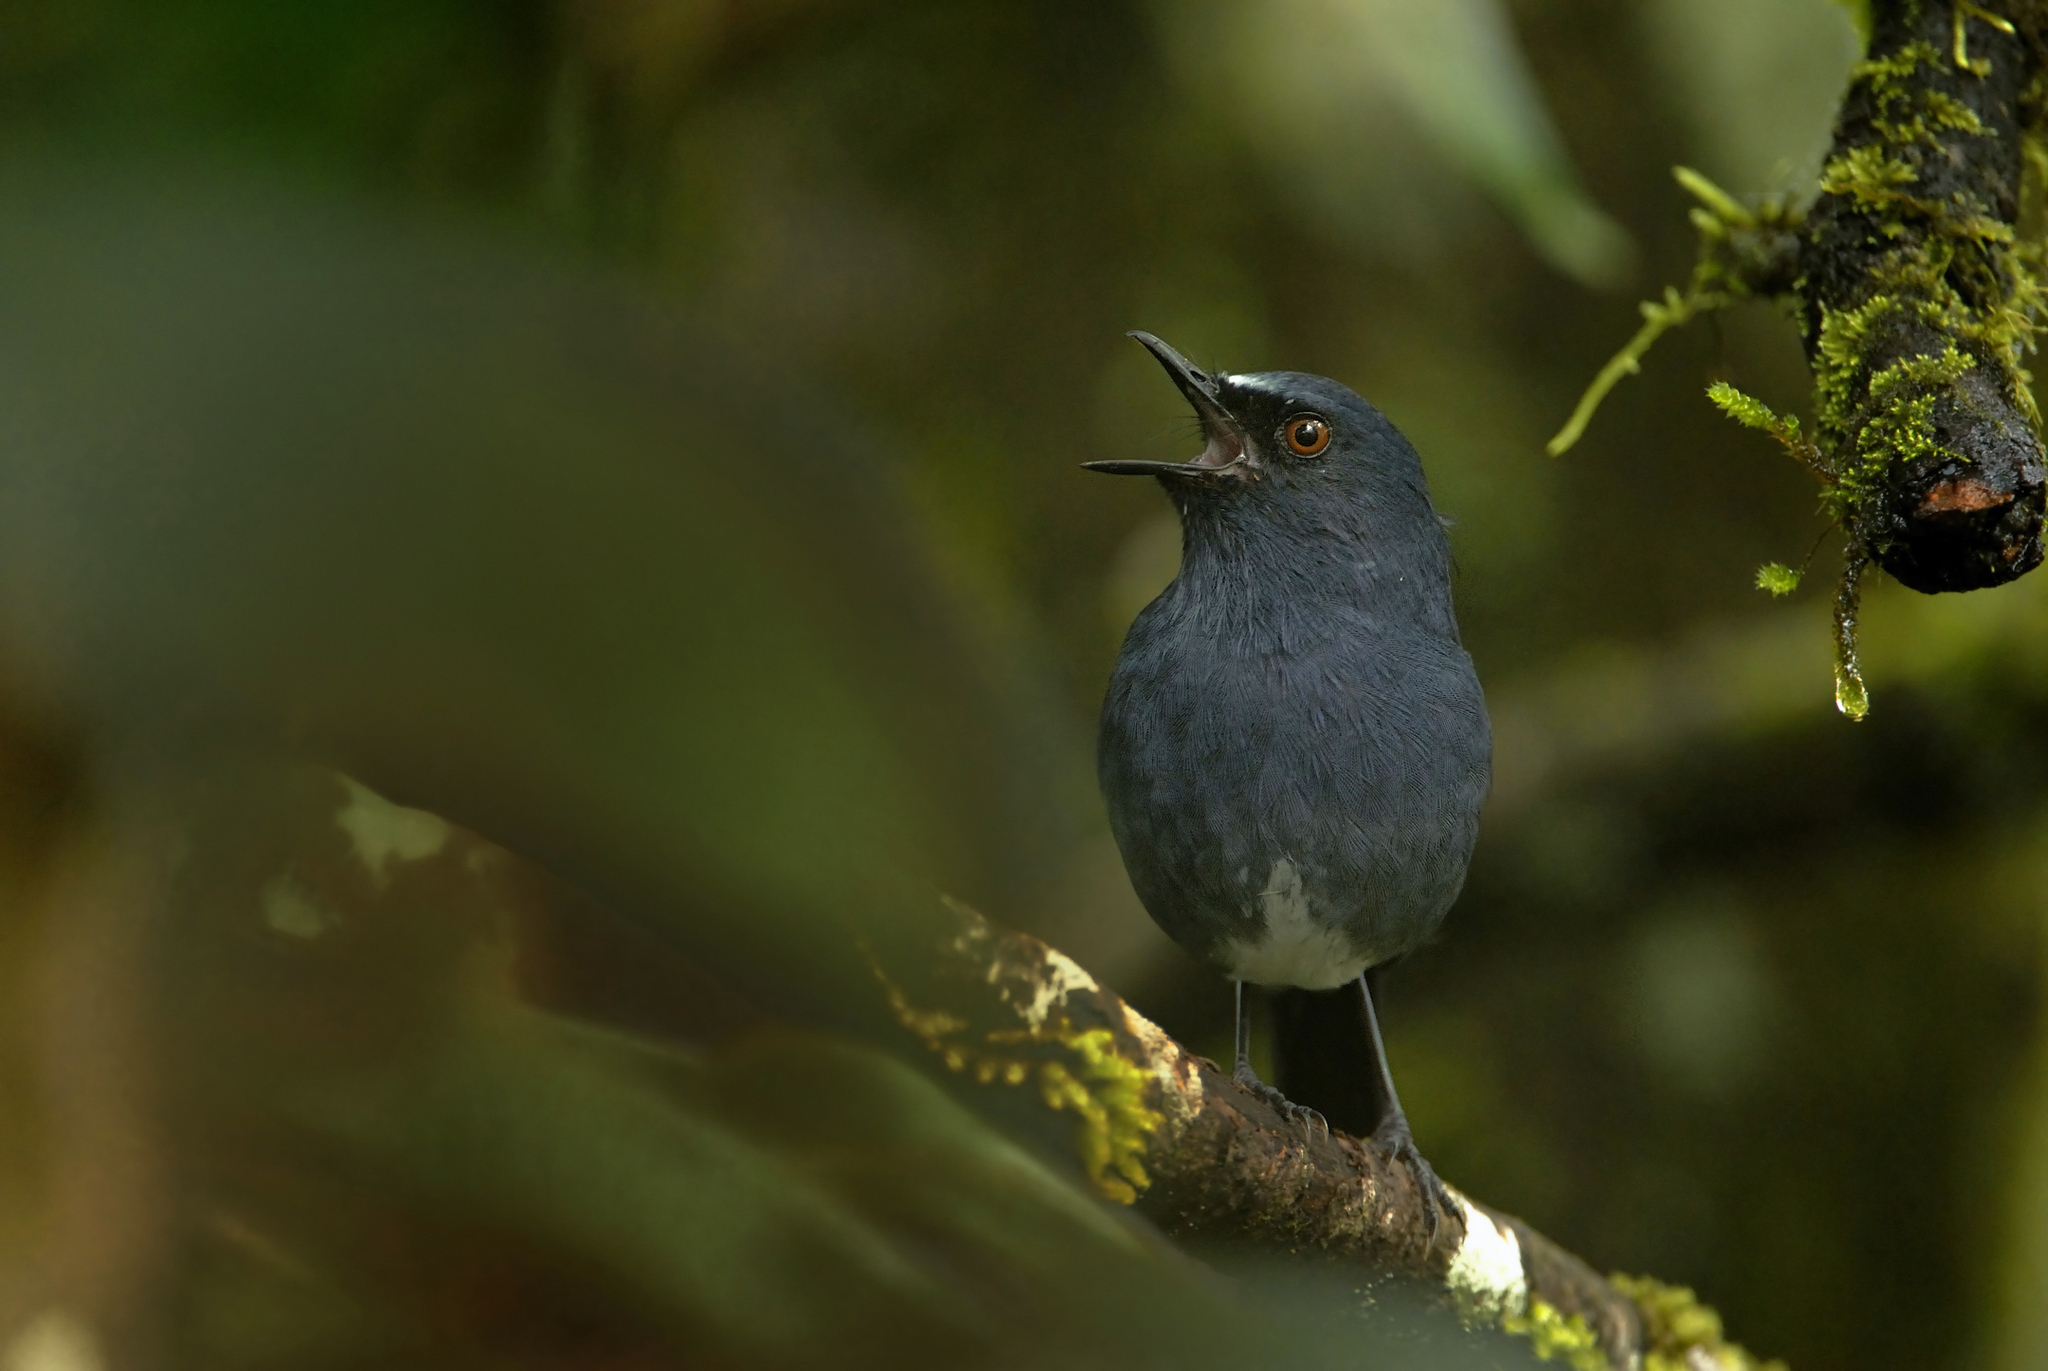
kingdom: Animalia
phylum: Chordata
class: Aves
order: Passeriformes
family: Muscicapidae
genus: Myiomela
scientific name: Myiomela albiventris
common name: White-bellied blue-robin
